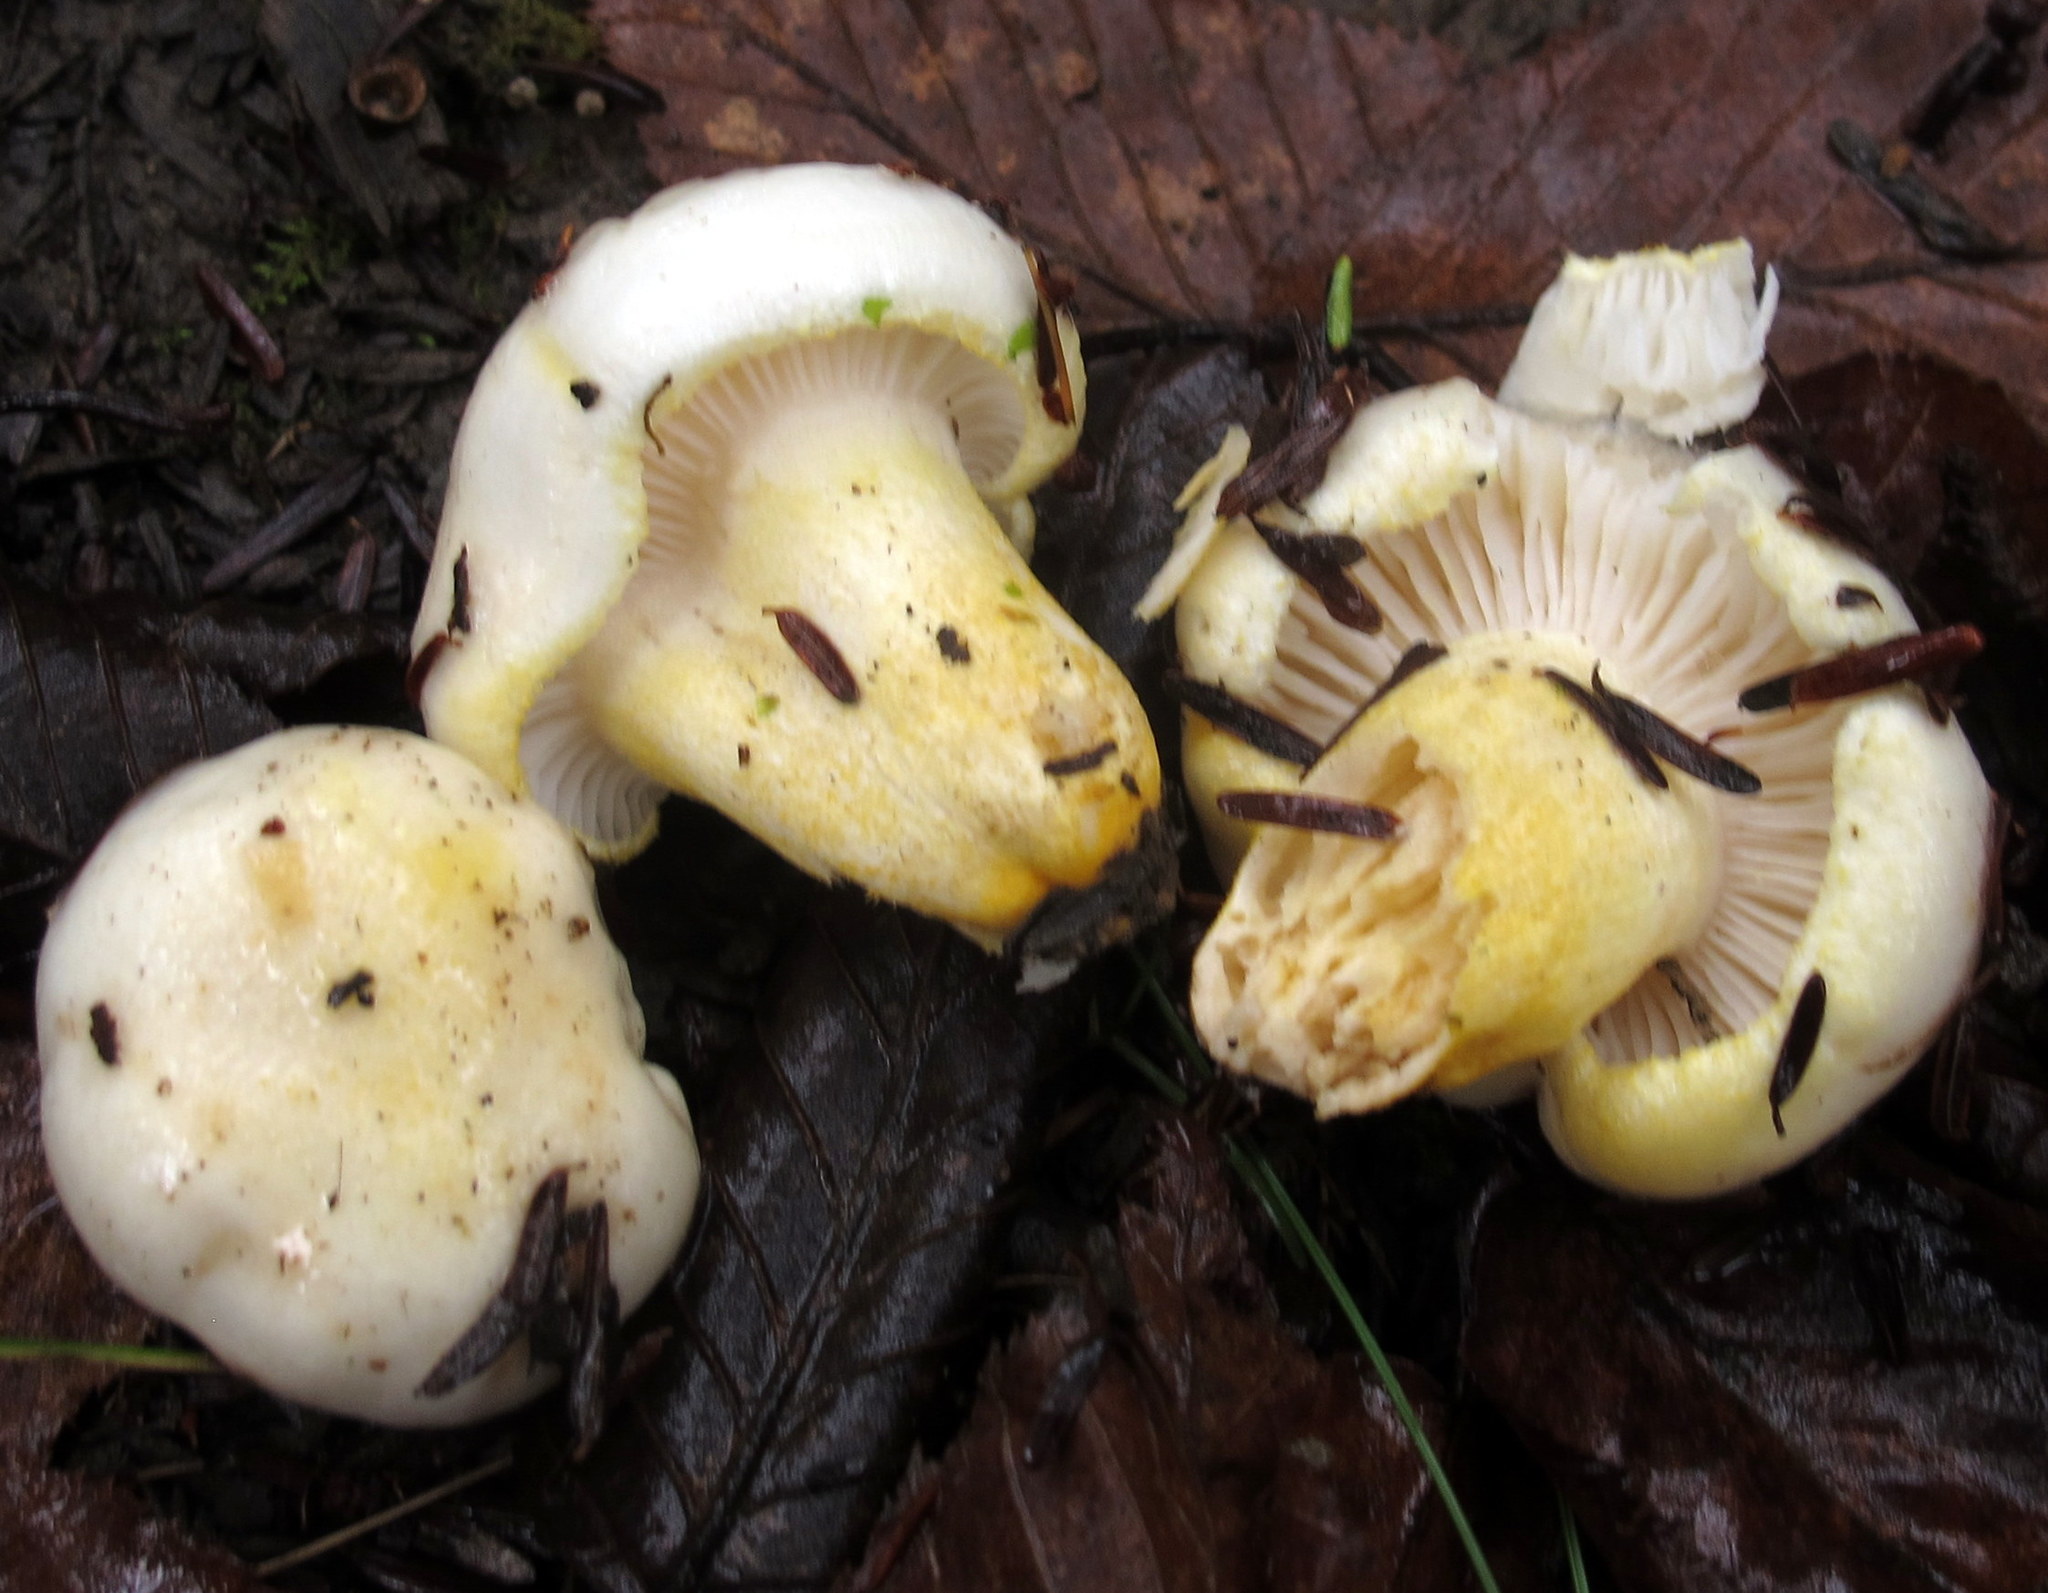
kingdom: Fungi
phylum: Basidiomycota
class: Agaricomycetes
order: Agaricales
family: Hygrophoraceae
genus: Hygrophorus
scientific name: Hygrophorus chrysodon
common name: Gold flecked woodwax
